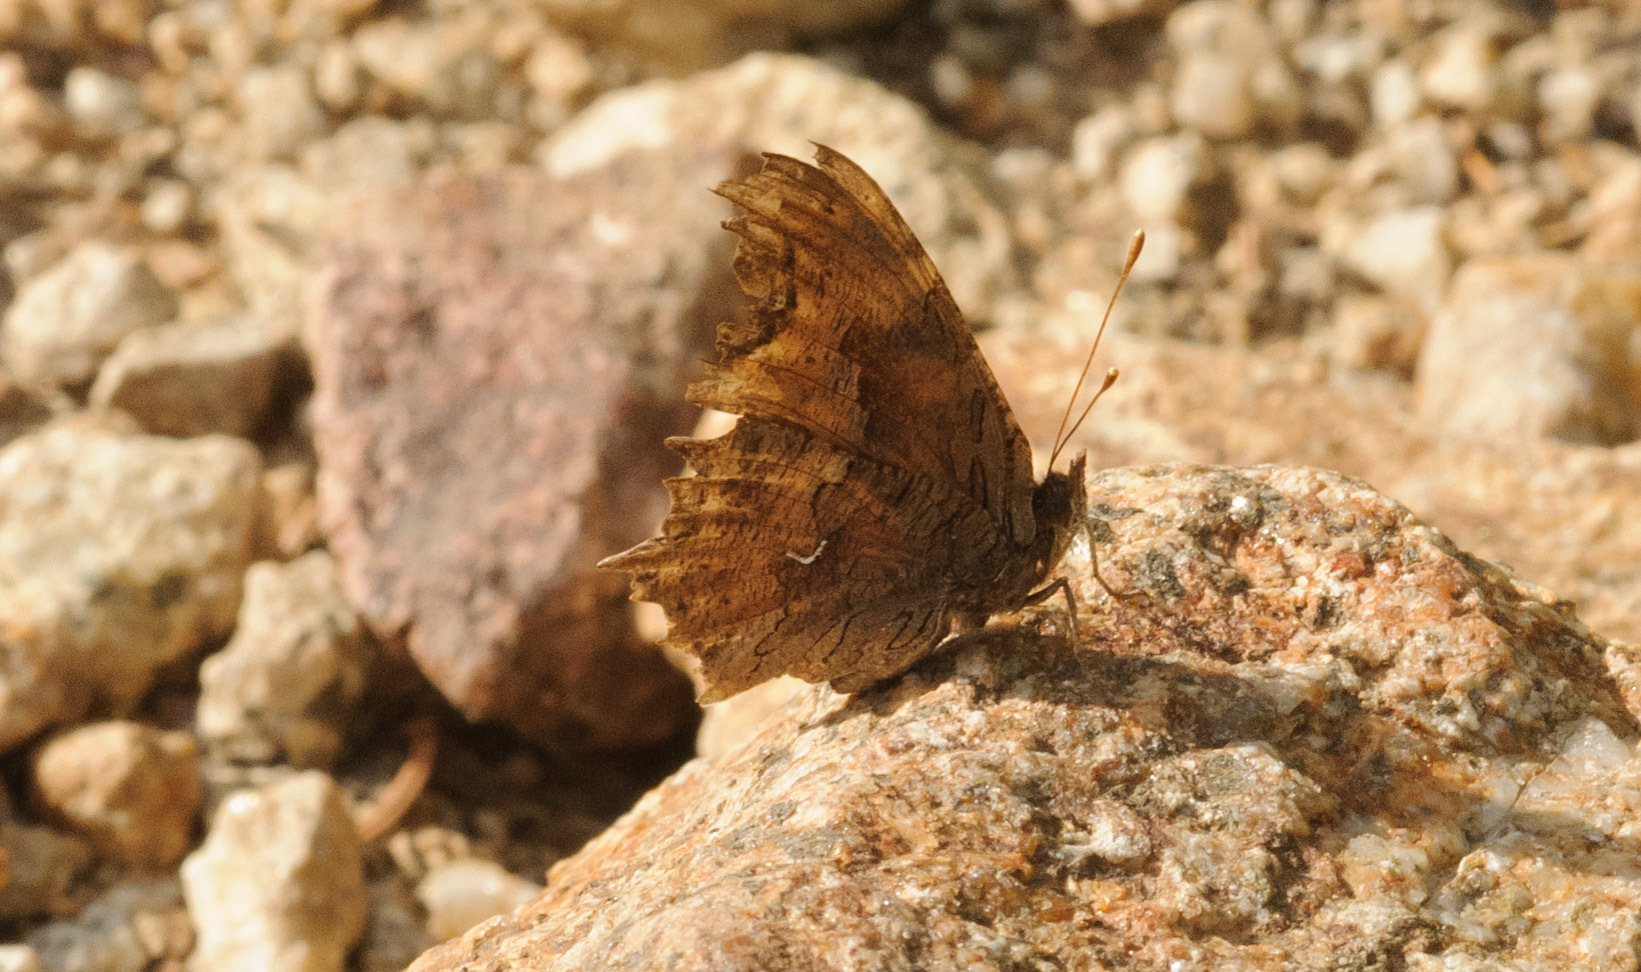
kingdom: Animalia
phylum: Arthropoda
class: Insecta
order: Lepidoptera
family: Nymphalidae
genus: Polygonia
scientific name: Polygonia gracilis
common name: Hoary comma
